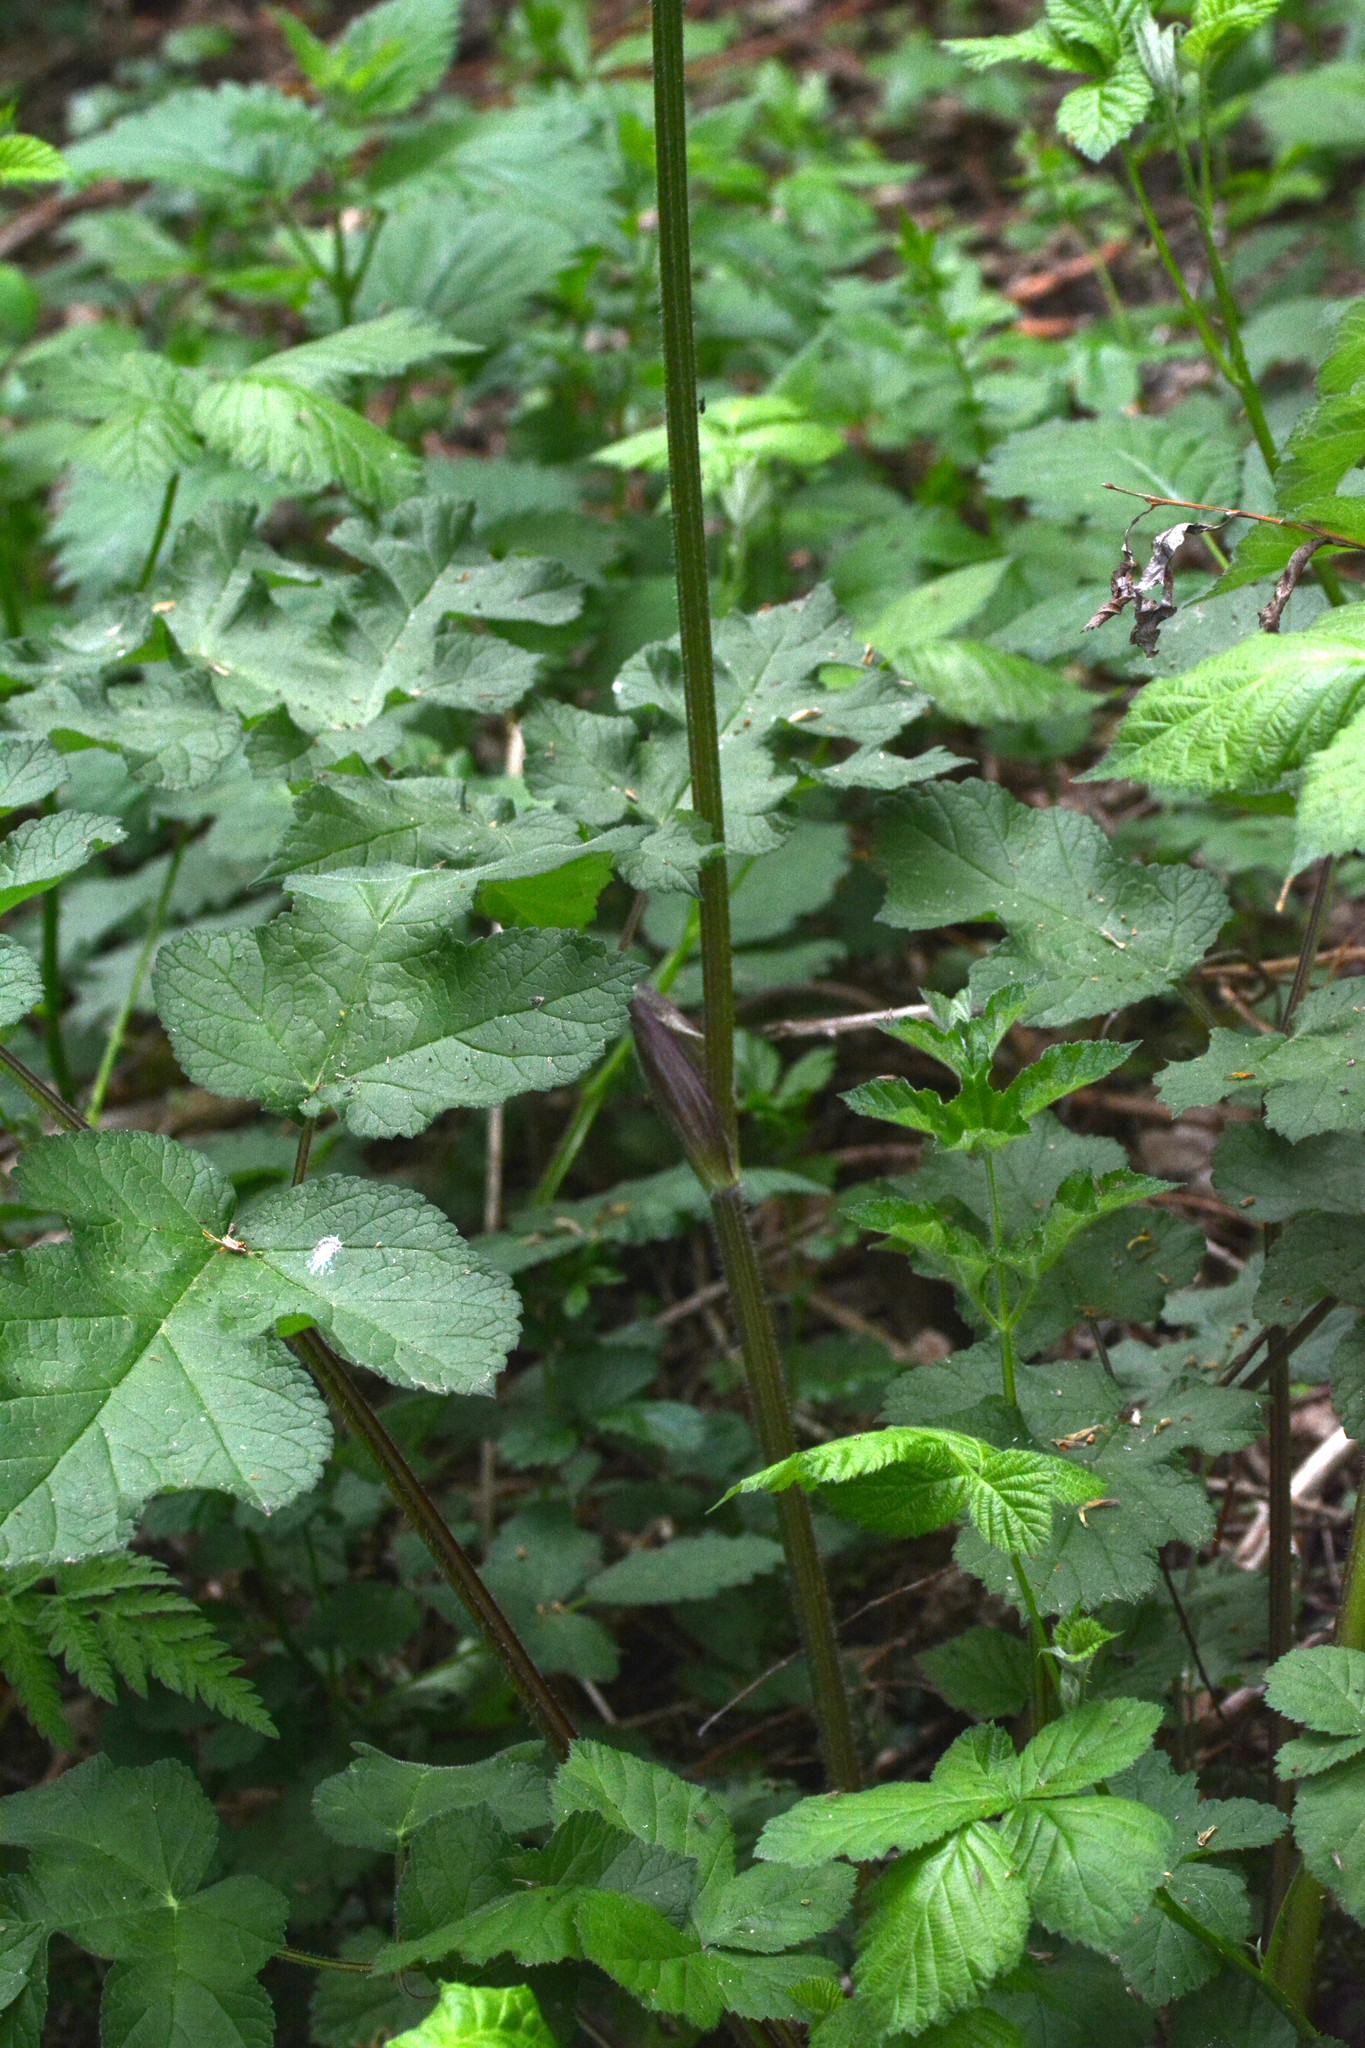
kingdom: Plantae
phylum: Tracheophyta
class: Magnoliopsida
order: Apiales
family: Apiaceae
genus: Heracleum
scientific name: Heracleum sphondylium
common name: Hogweed
